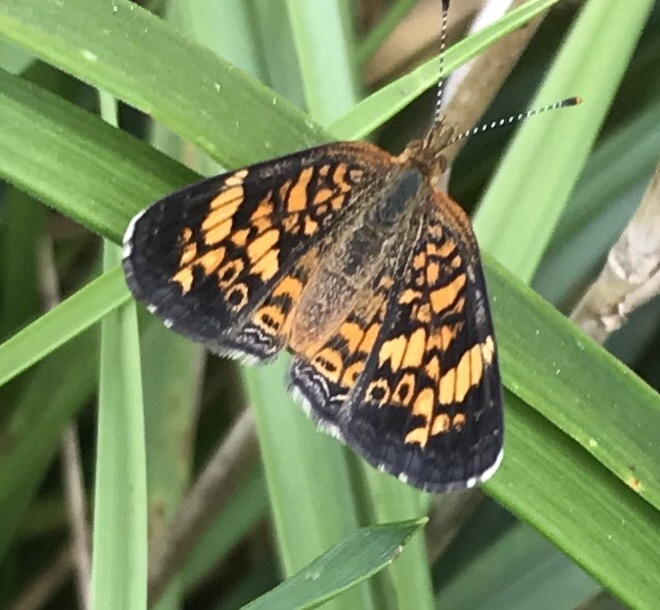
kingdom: Animalia
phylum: Arthropoda
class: Insecta
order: Lepidoptera
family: Nymphalidae
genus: Phyciodes
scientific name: Phyciodes tharos
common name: Pearl crescent
